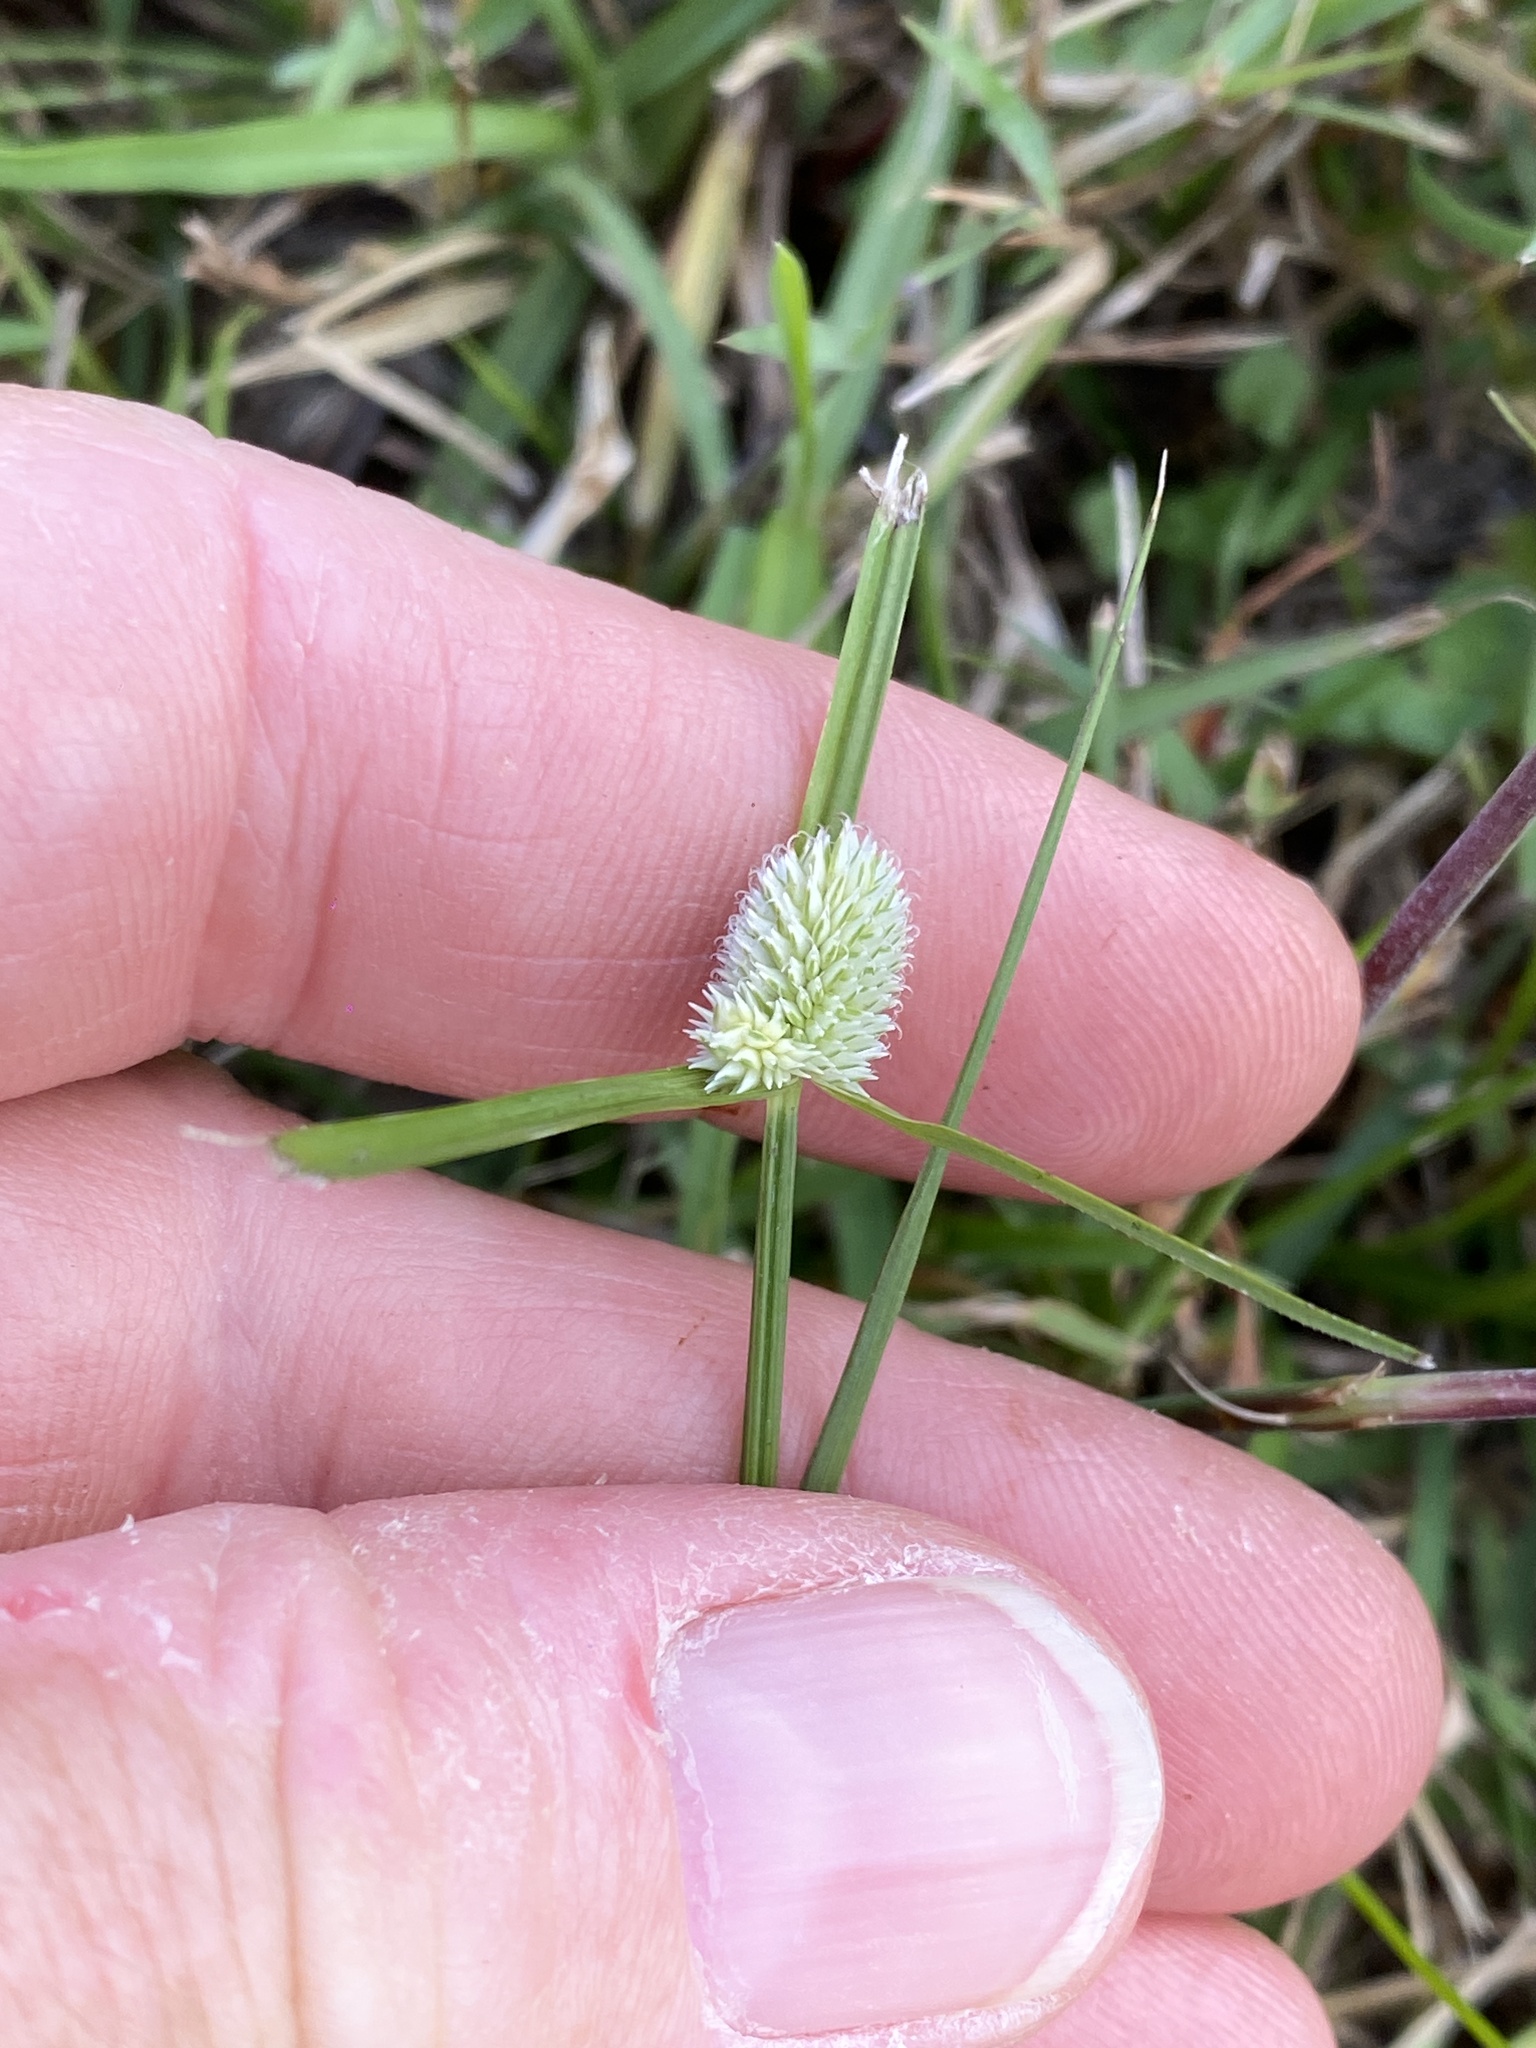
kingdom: Plantae
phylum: Tracheophyta
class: Liliopsida
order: Poales
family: Cyperaceae
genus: Cyperus
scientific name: Cyperus sesquiflorus
